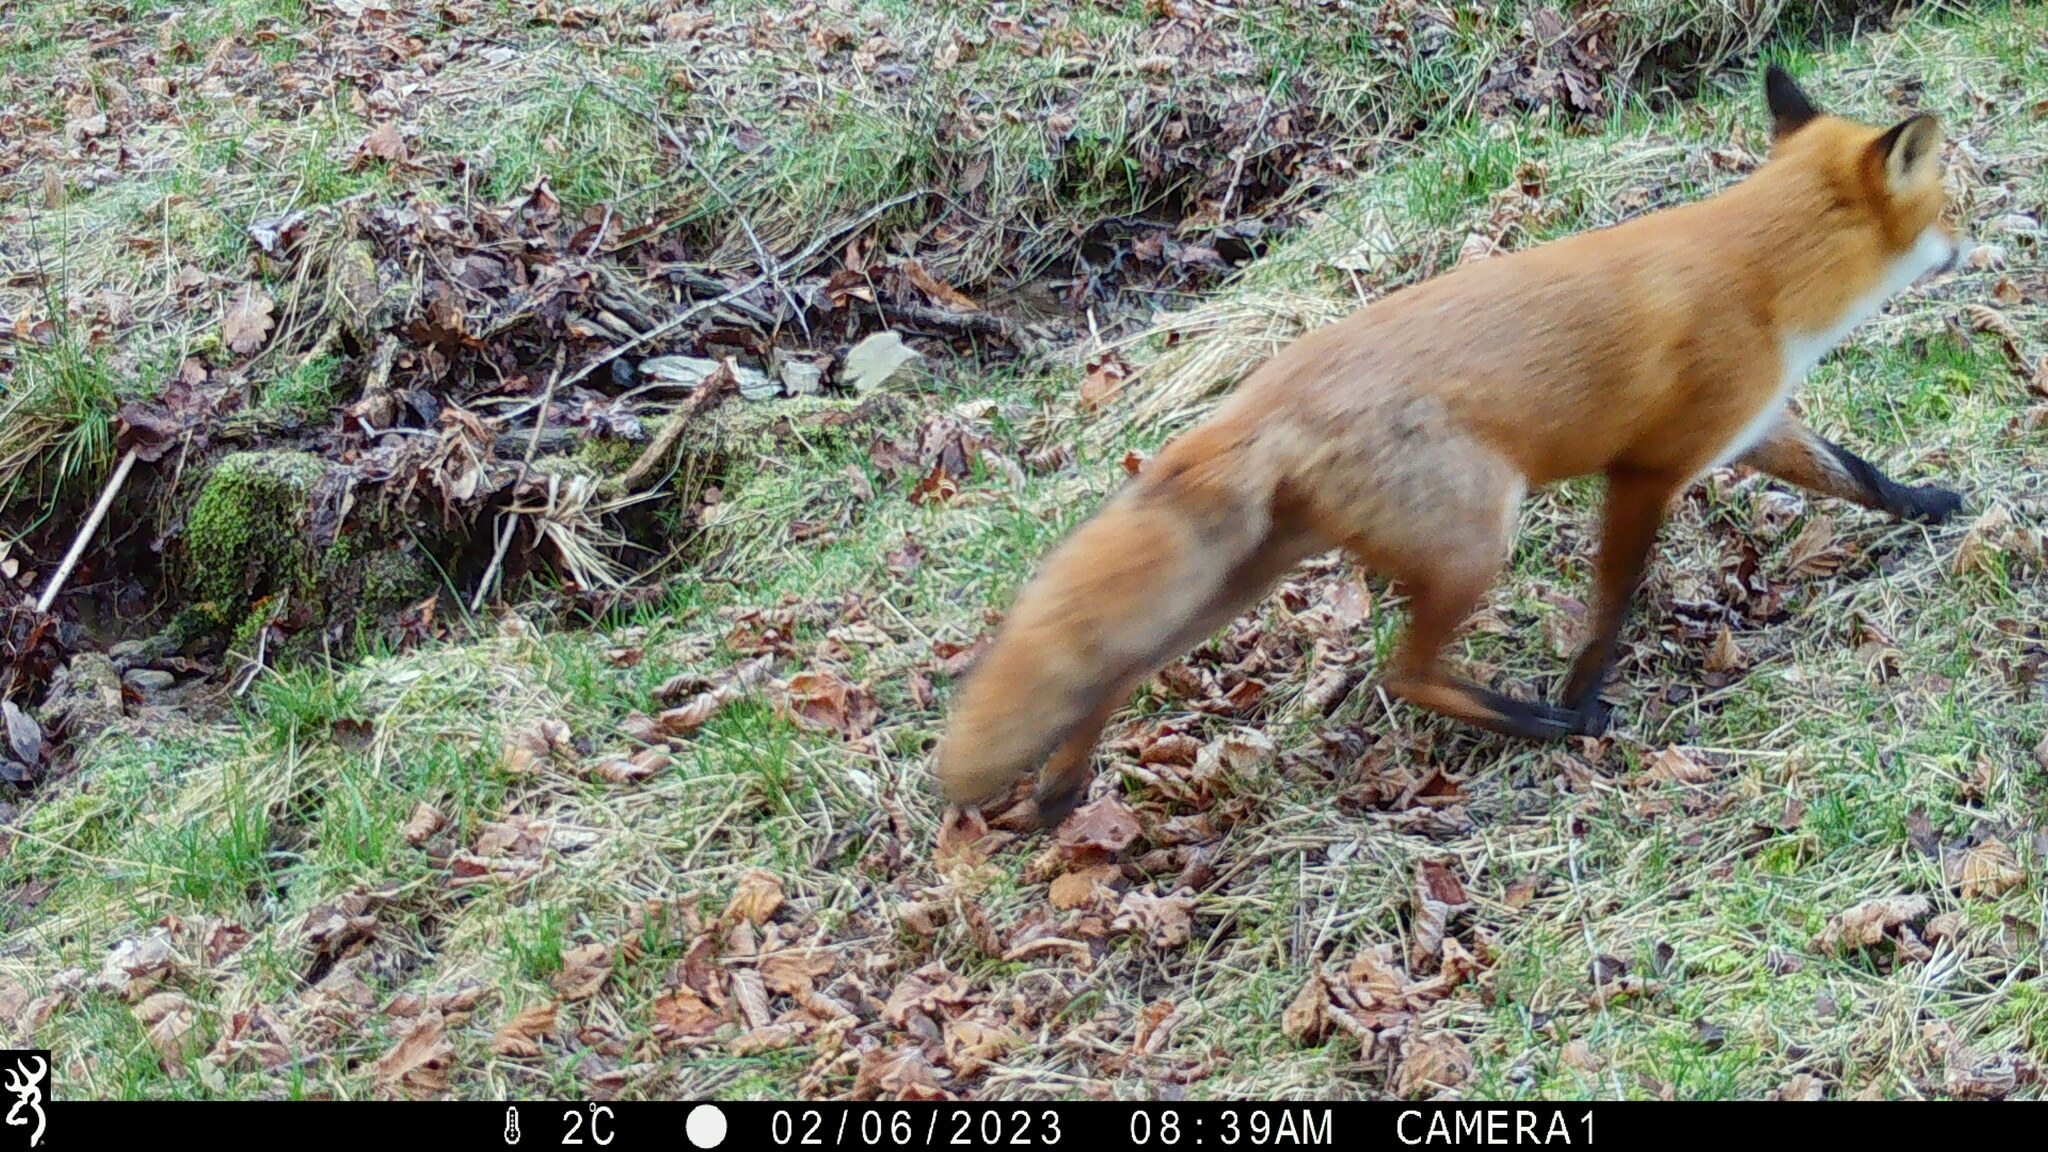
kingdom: Animalia
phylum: Chordata
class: Mammalia
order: Carnivora
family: Canidae
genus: Vulpes
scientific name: Vulpes vulpes
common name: Red fox
